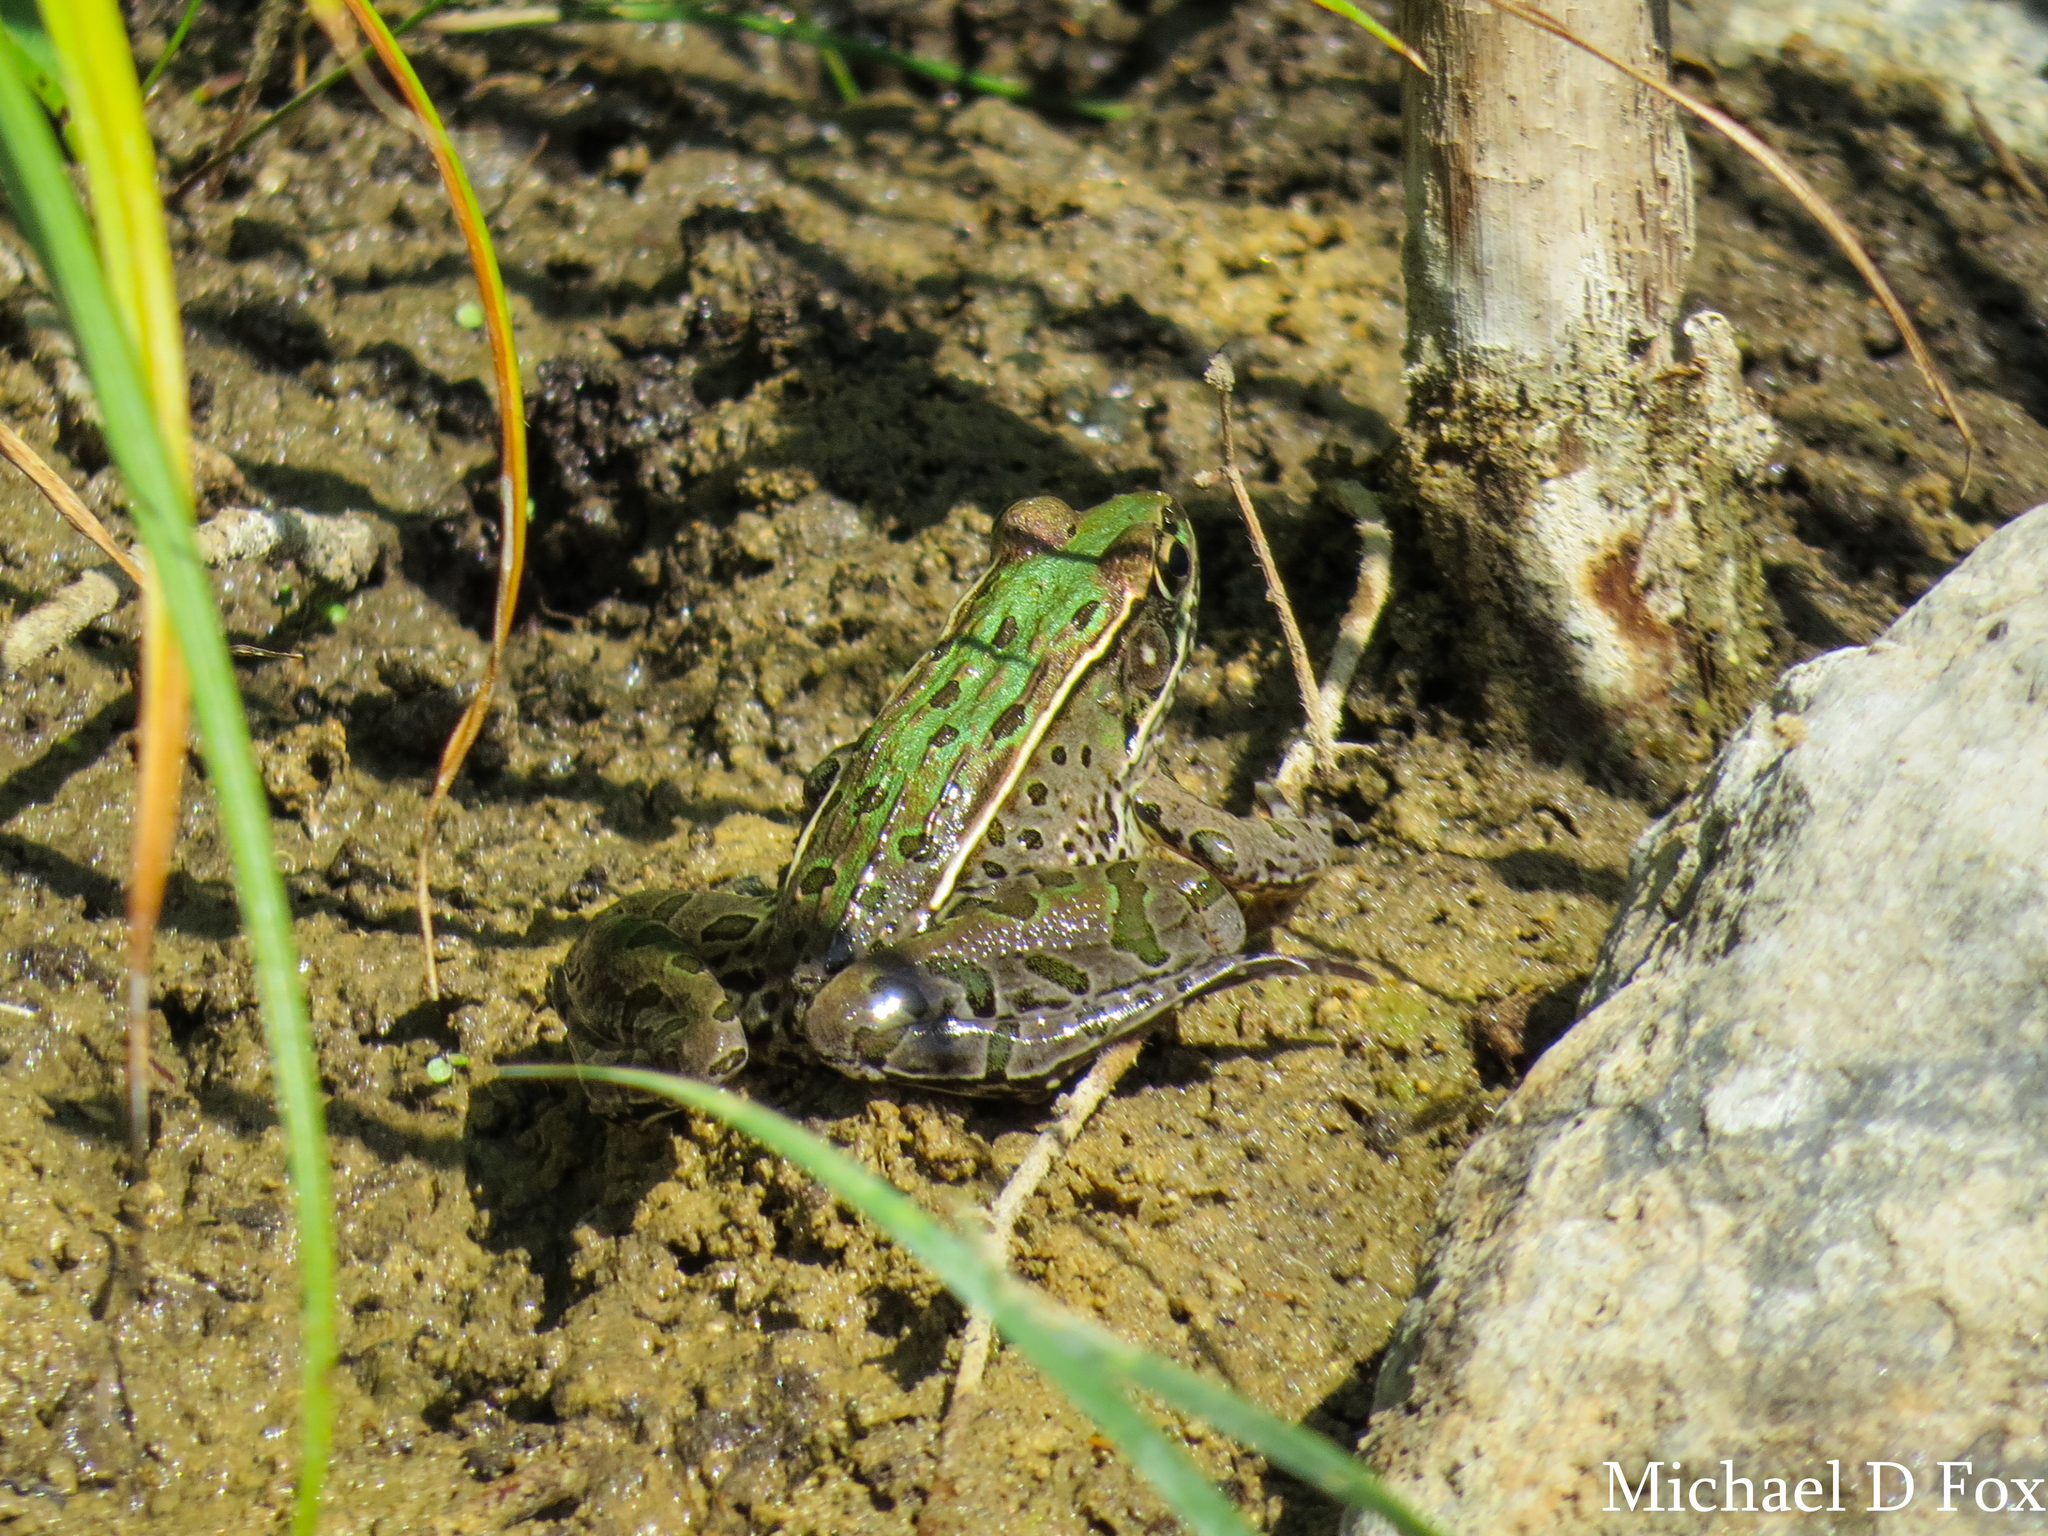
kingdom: Animalia
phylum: Chordata
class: Amphibia
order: Anura
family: Ranidae
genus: Lithobates
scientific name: Lithobates sphenocephalus
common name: Southern leopard frog
